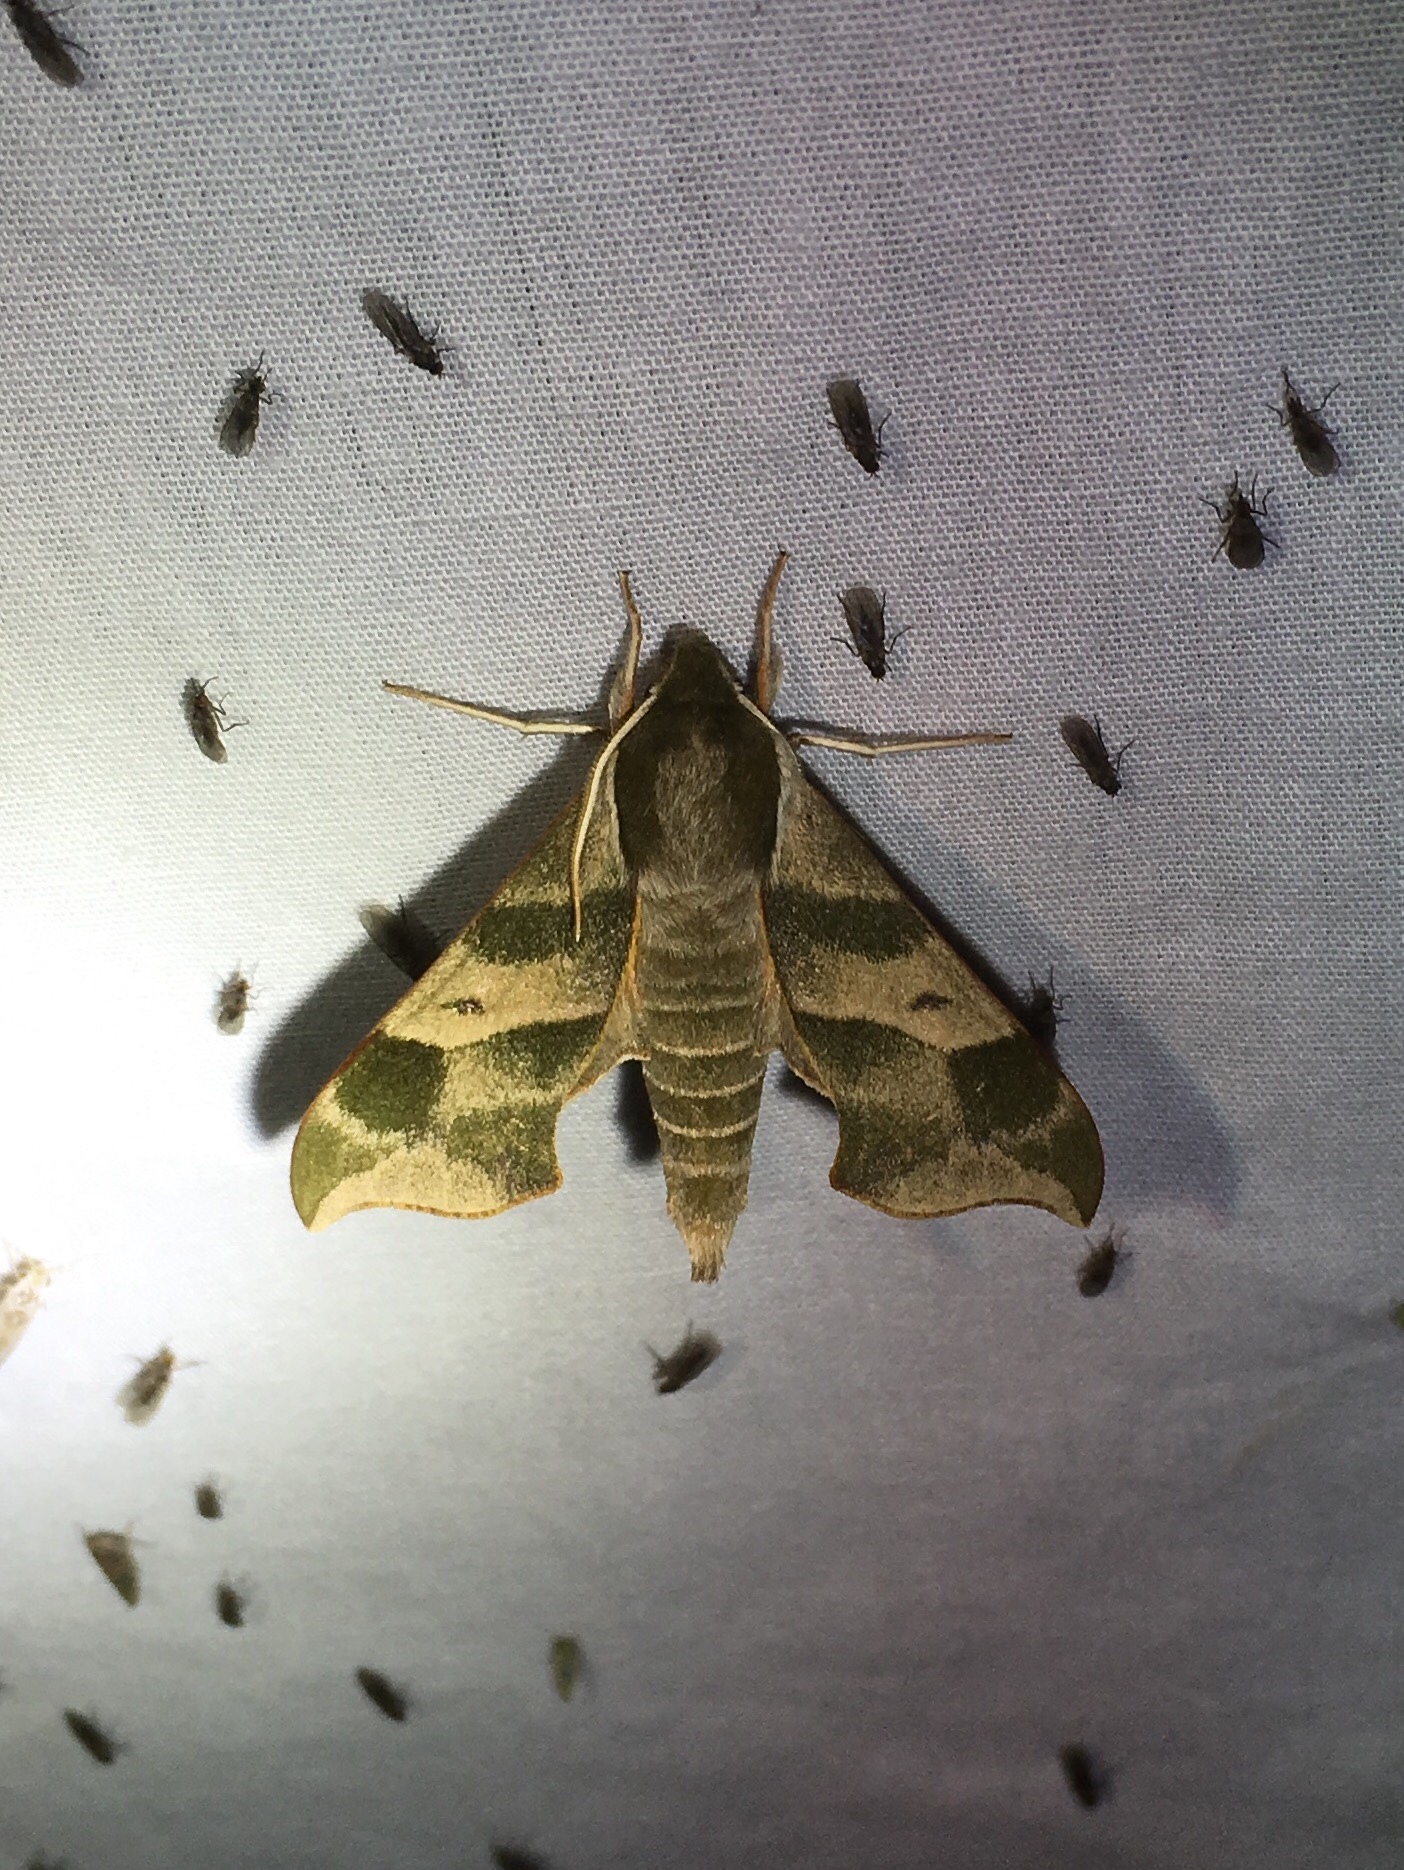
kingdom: Animalia
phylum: Arthropoda
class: Insecta
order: Lepidoptera
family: Sphingidae
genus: Darapsa
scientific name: Darapsa myron
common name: Hog sphinx
